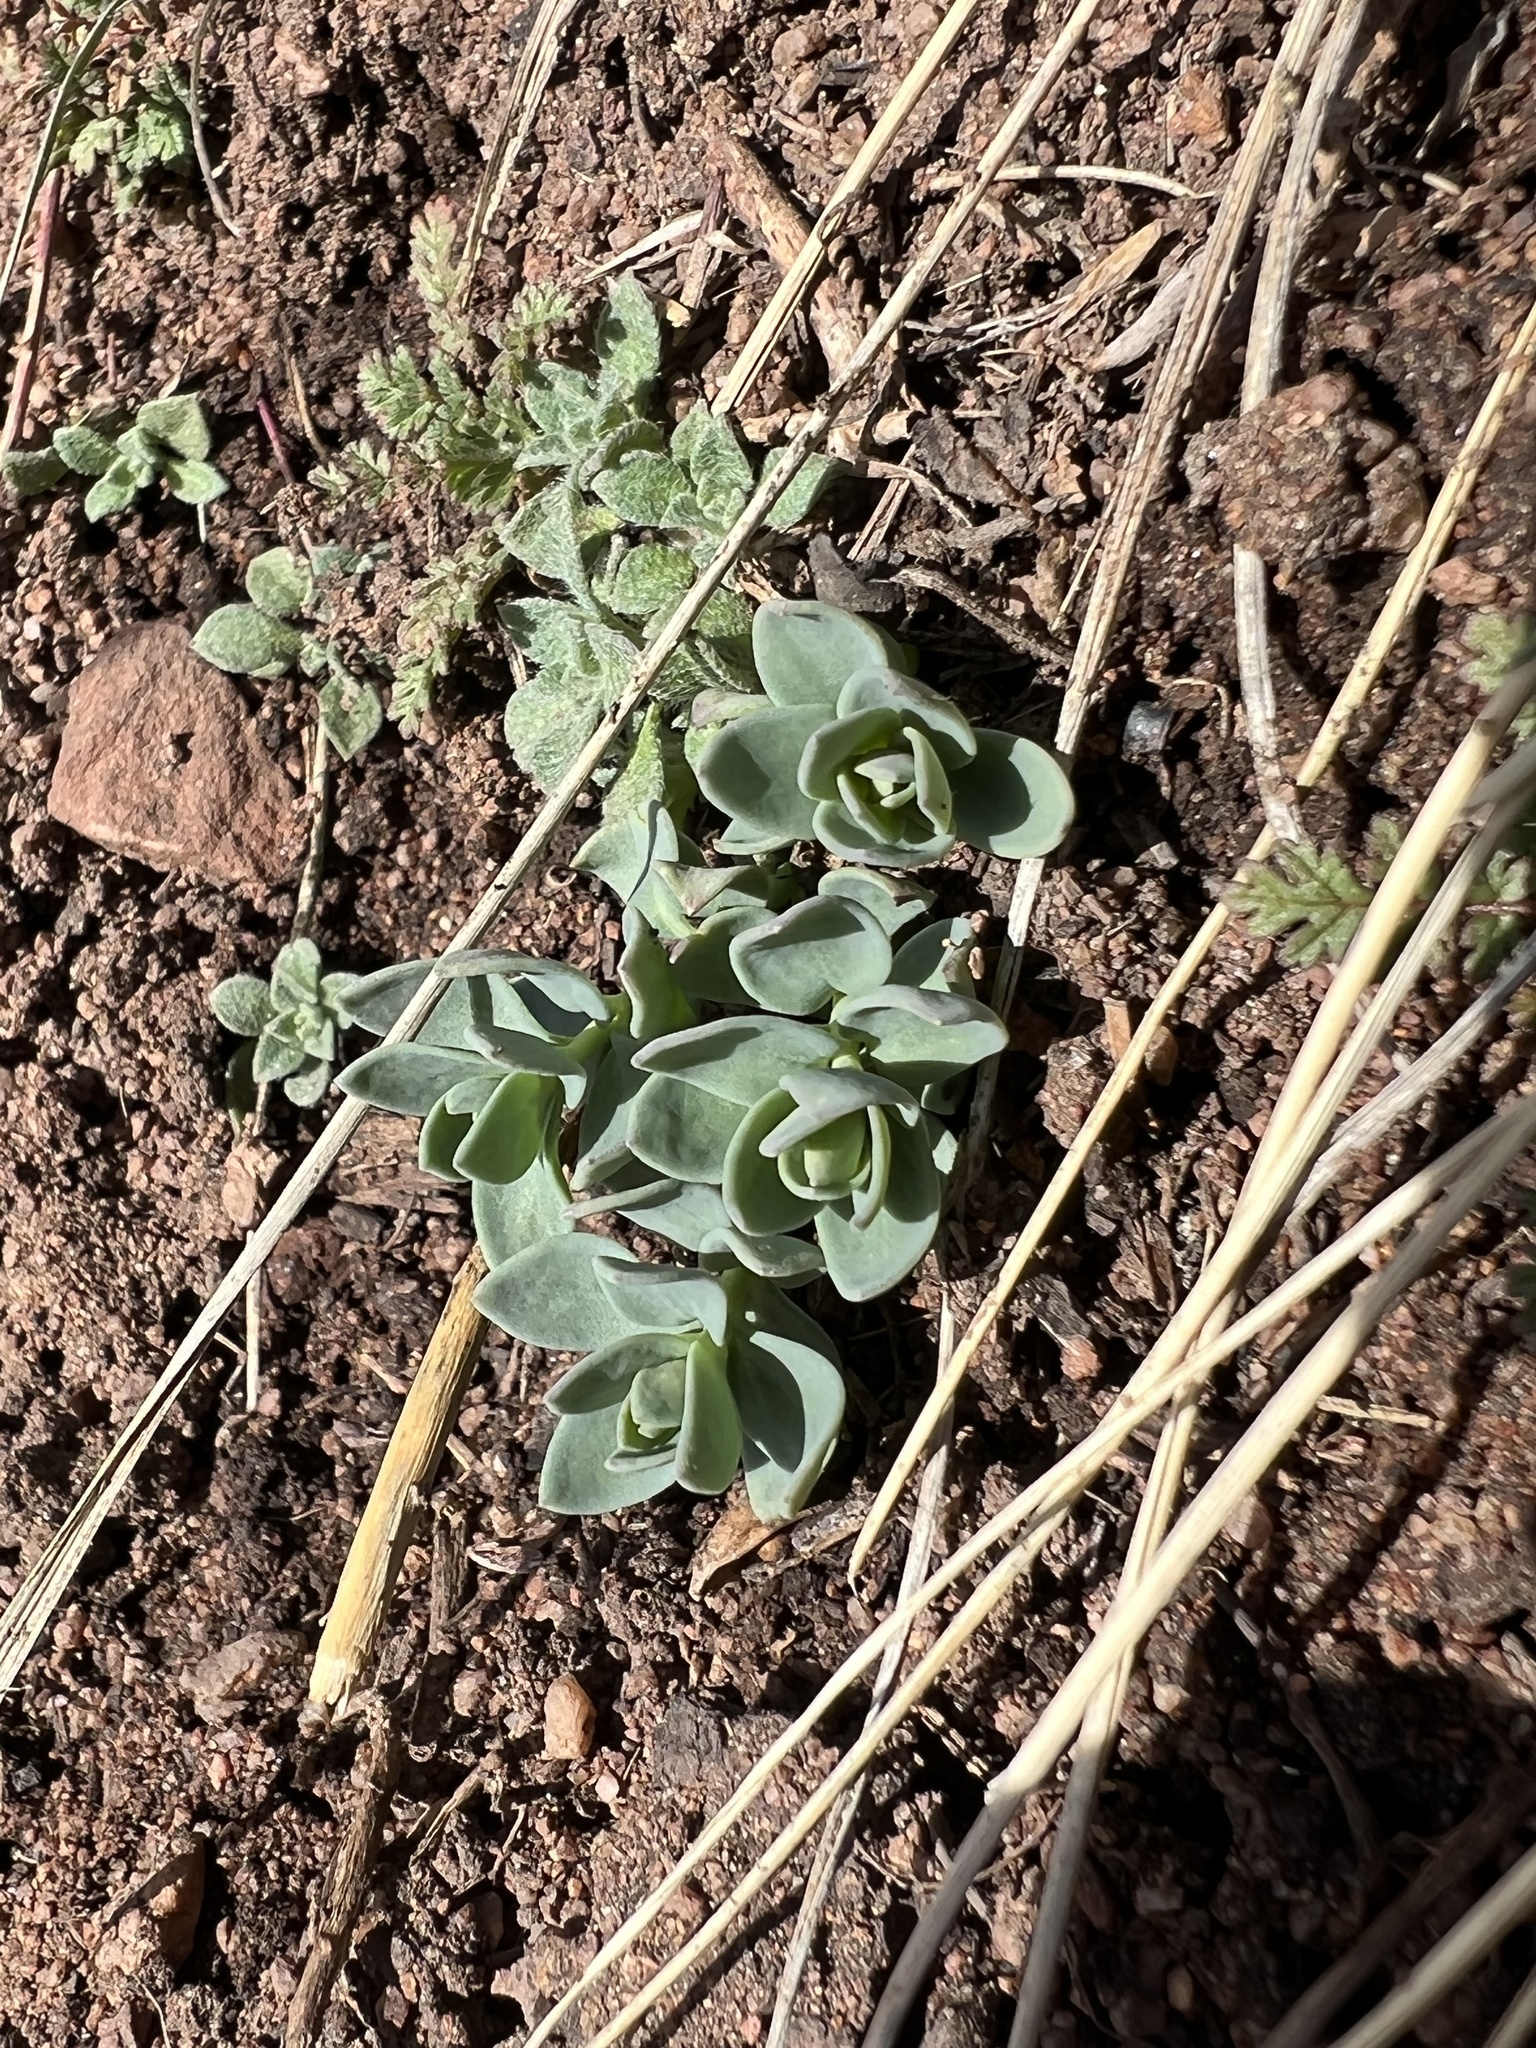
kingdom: Plantae
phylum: Tracheophyta
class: Magnoliopsida
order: Lamiales
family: Plantaginaceae
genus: Linaria
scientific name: Linaria dalmatica
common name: Dalmatian toadflax
